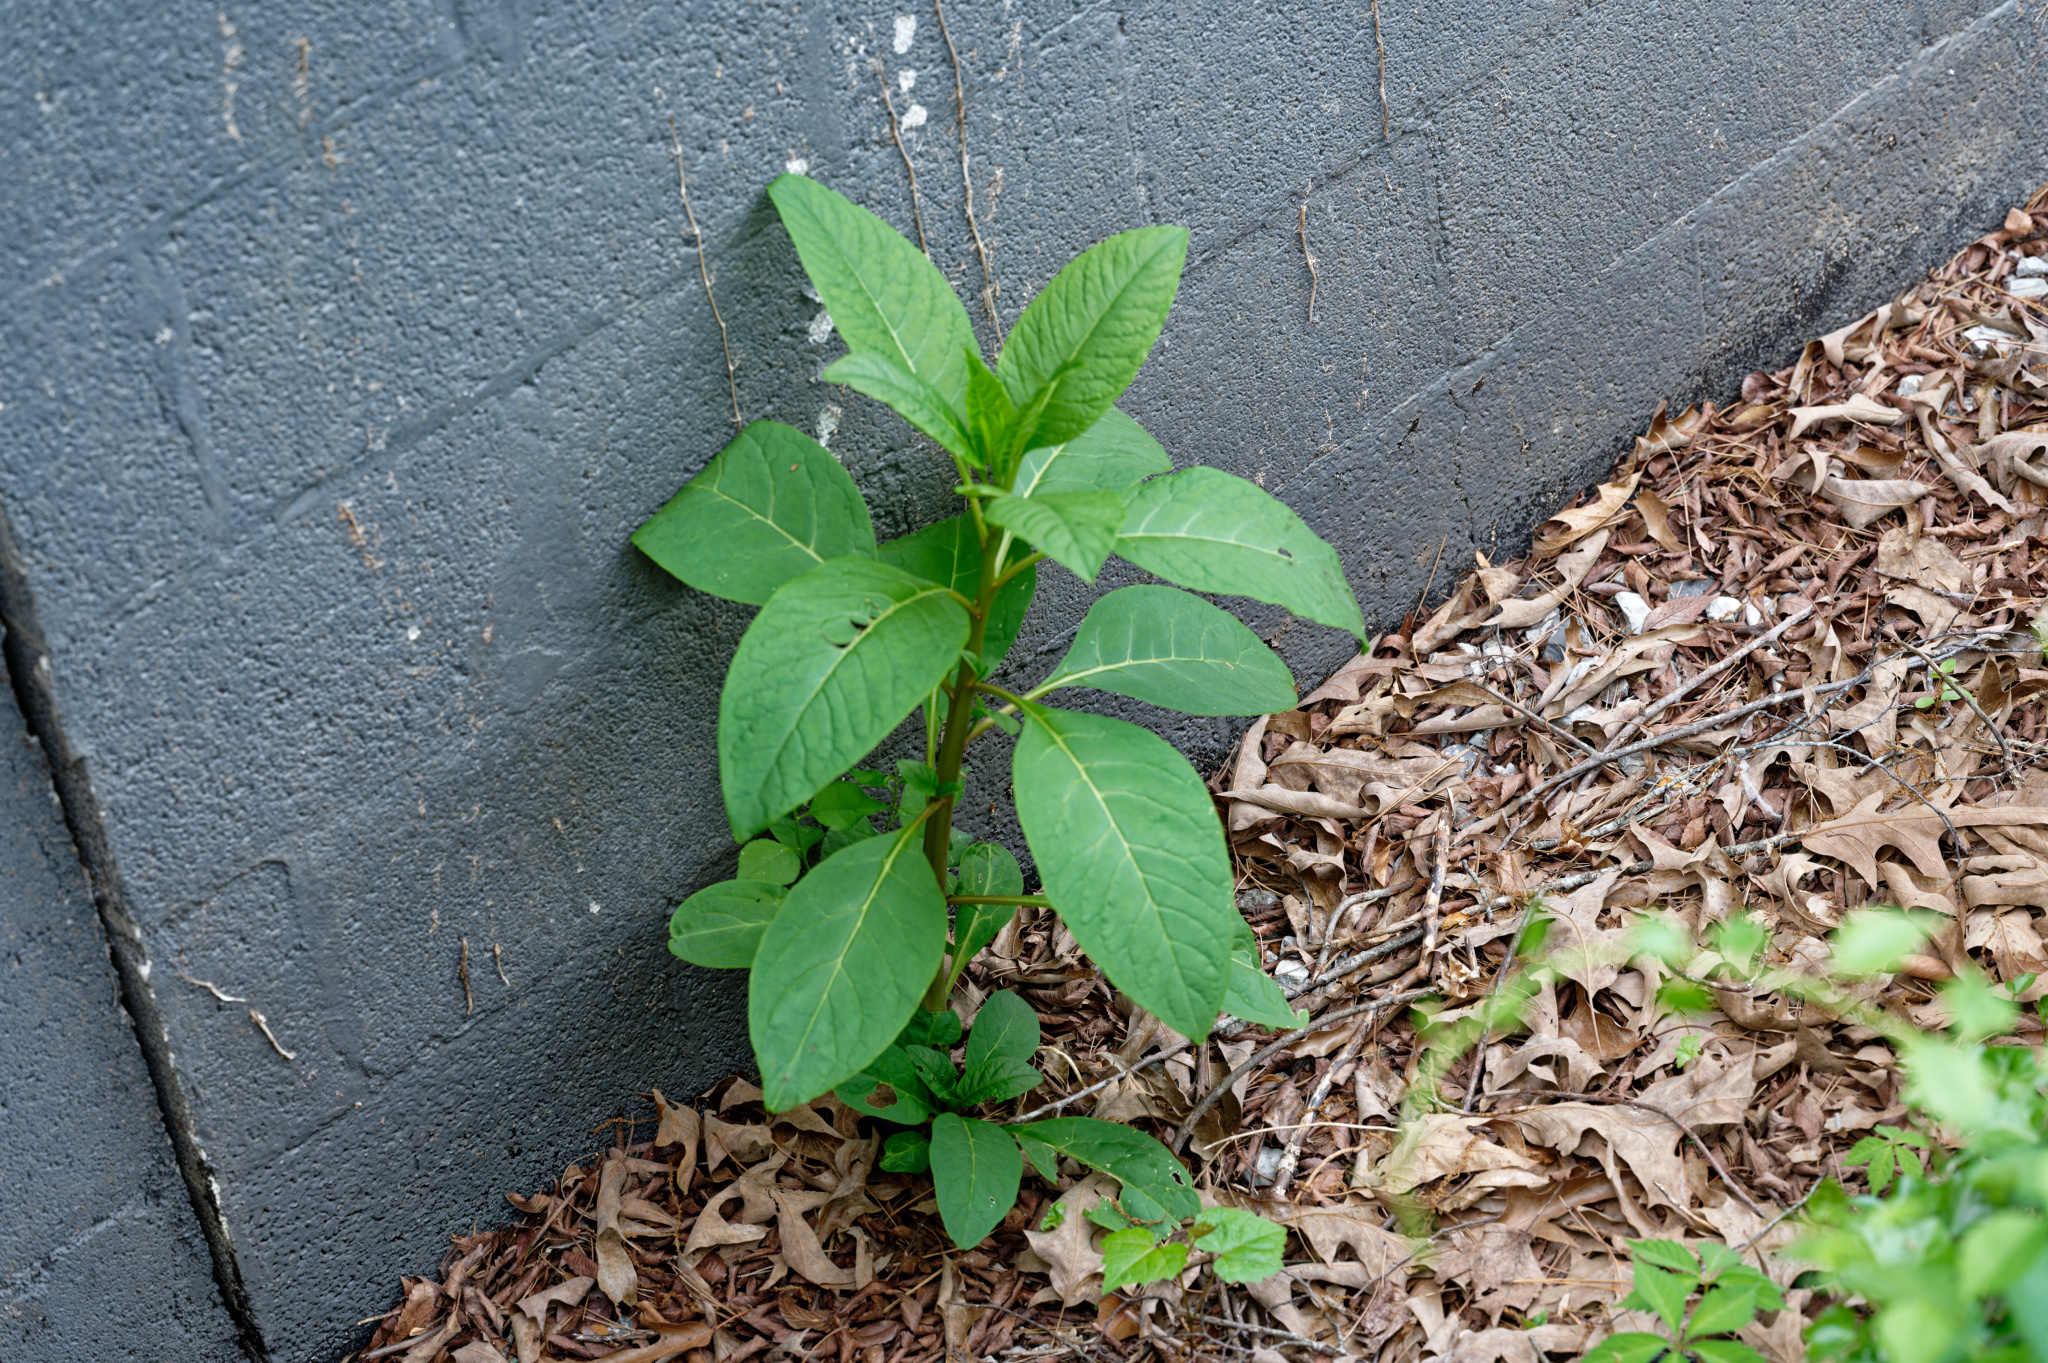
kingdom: Plantae
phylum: Tracheophyta
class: Magnoliopsida
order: Caryophyllales
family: Phytolaccaceae
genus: Phytolacca
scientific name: Phytolacca americana
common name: American pokeweed
